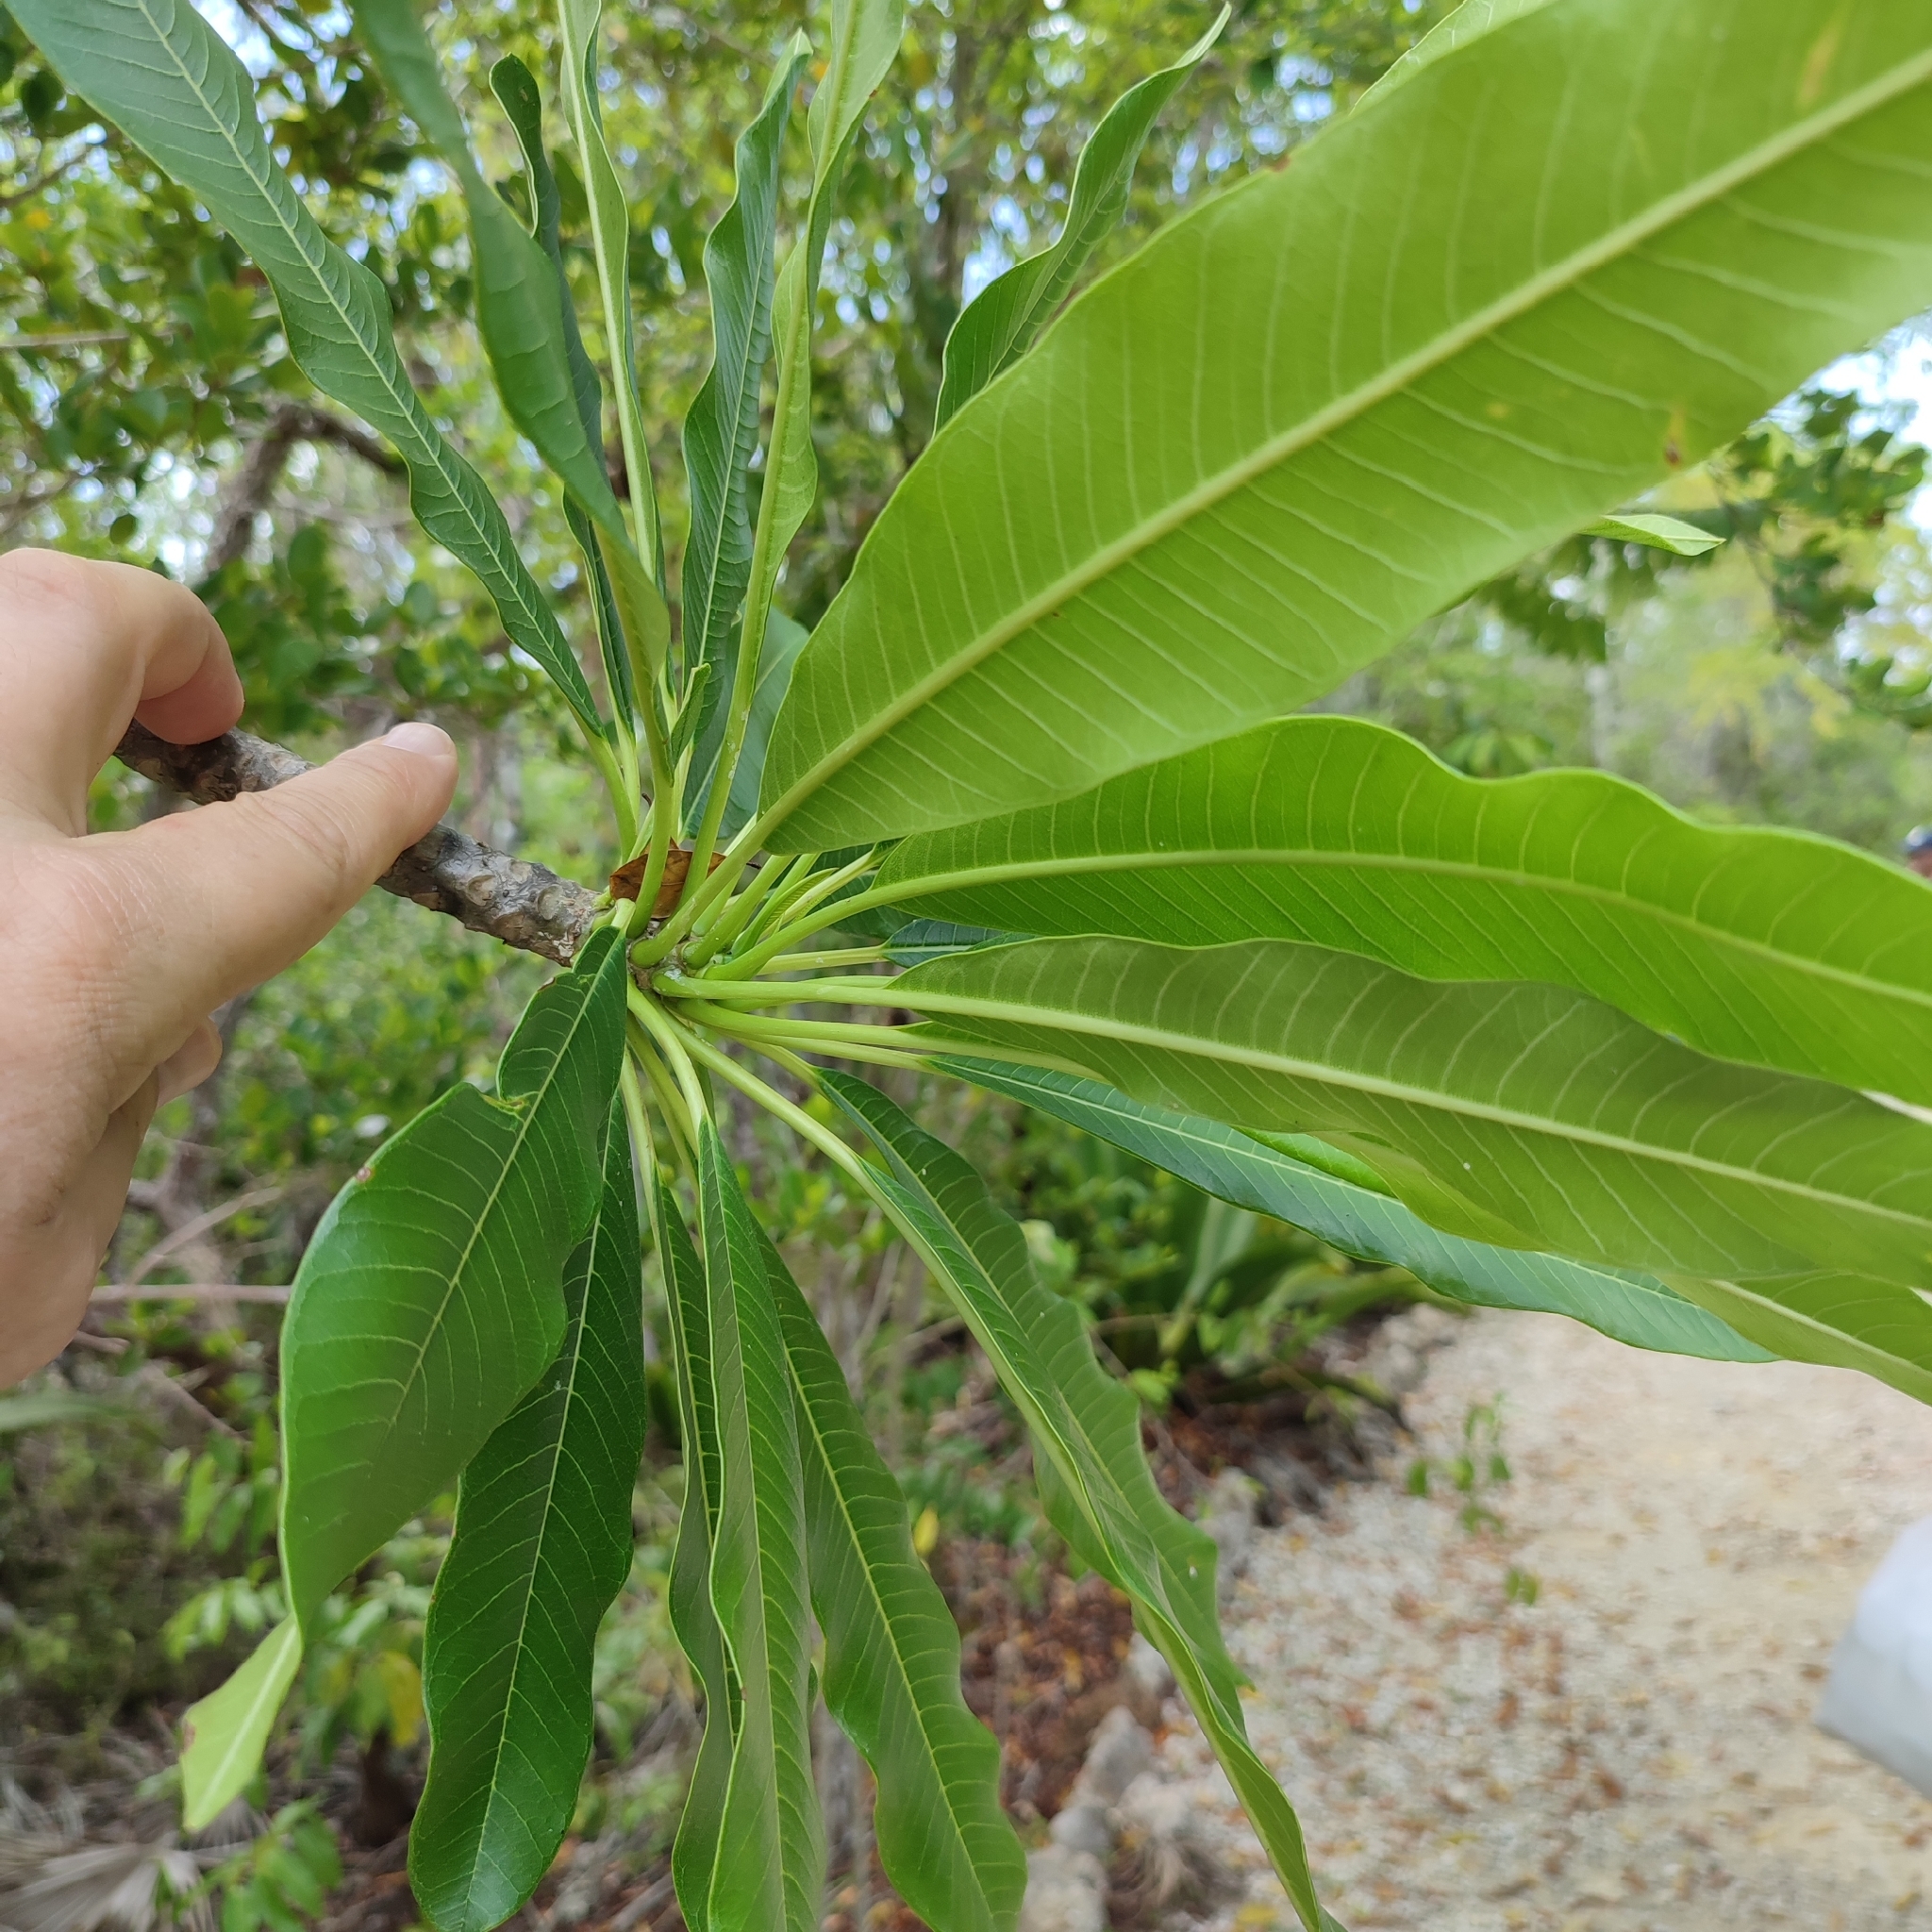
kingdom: Plantae
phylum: Tracheophyta
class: Magnoliopsida
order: Gentianales
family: Apocynaceae
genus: Plumeria
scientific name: Plumeria obtusa
